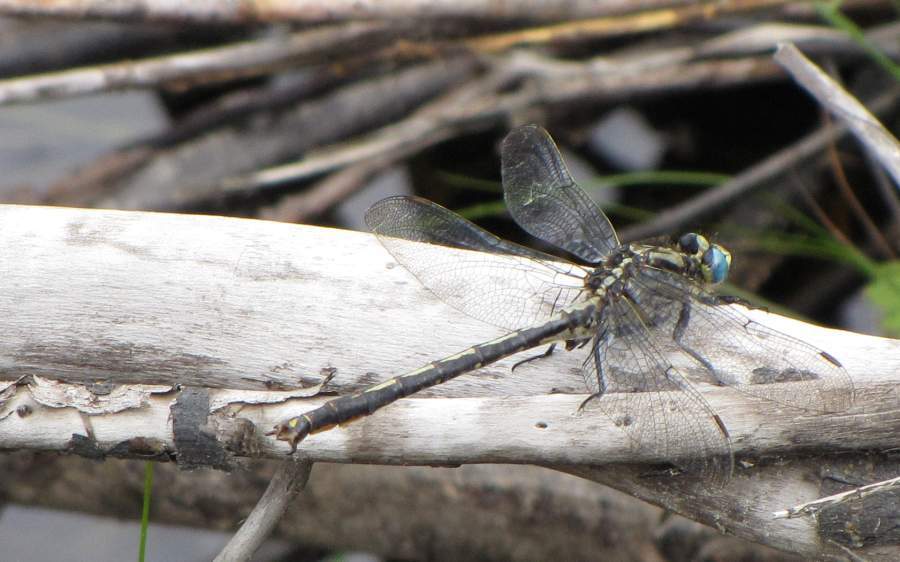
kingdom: Animalia
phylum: Arthropoda
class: Insecta
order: Odonata
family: Gomphidae
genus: Arigomphus
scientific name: Arigomphus cornutus
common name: Horned clubtail
